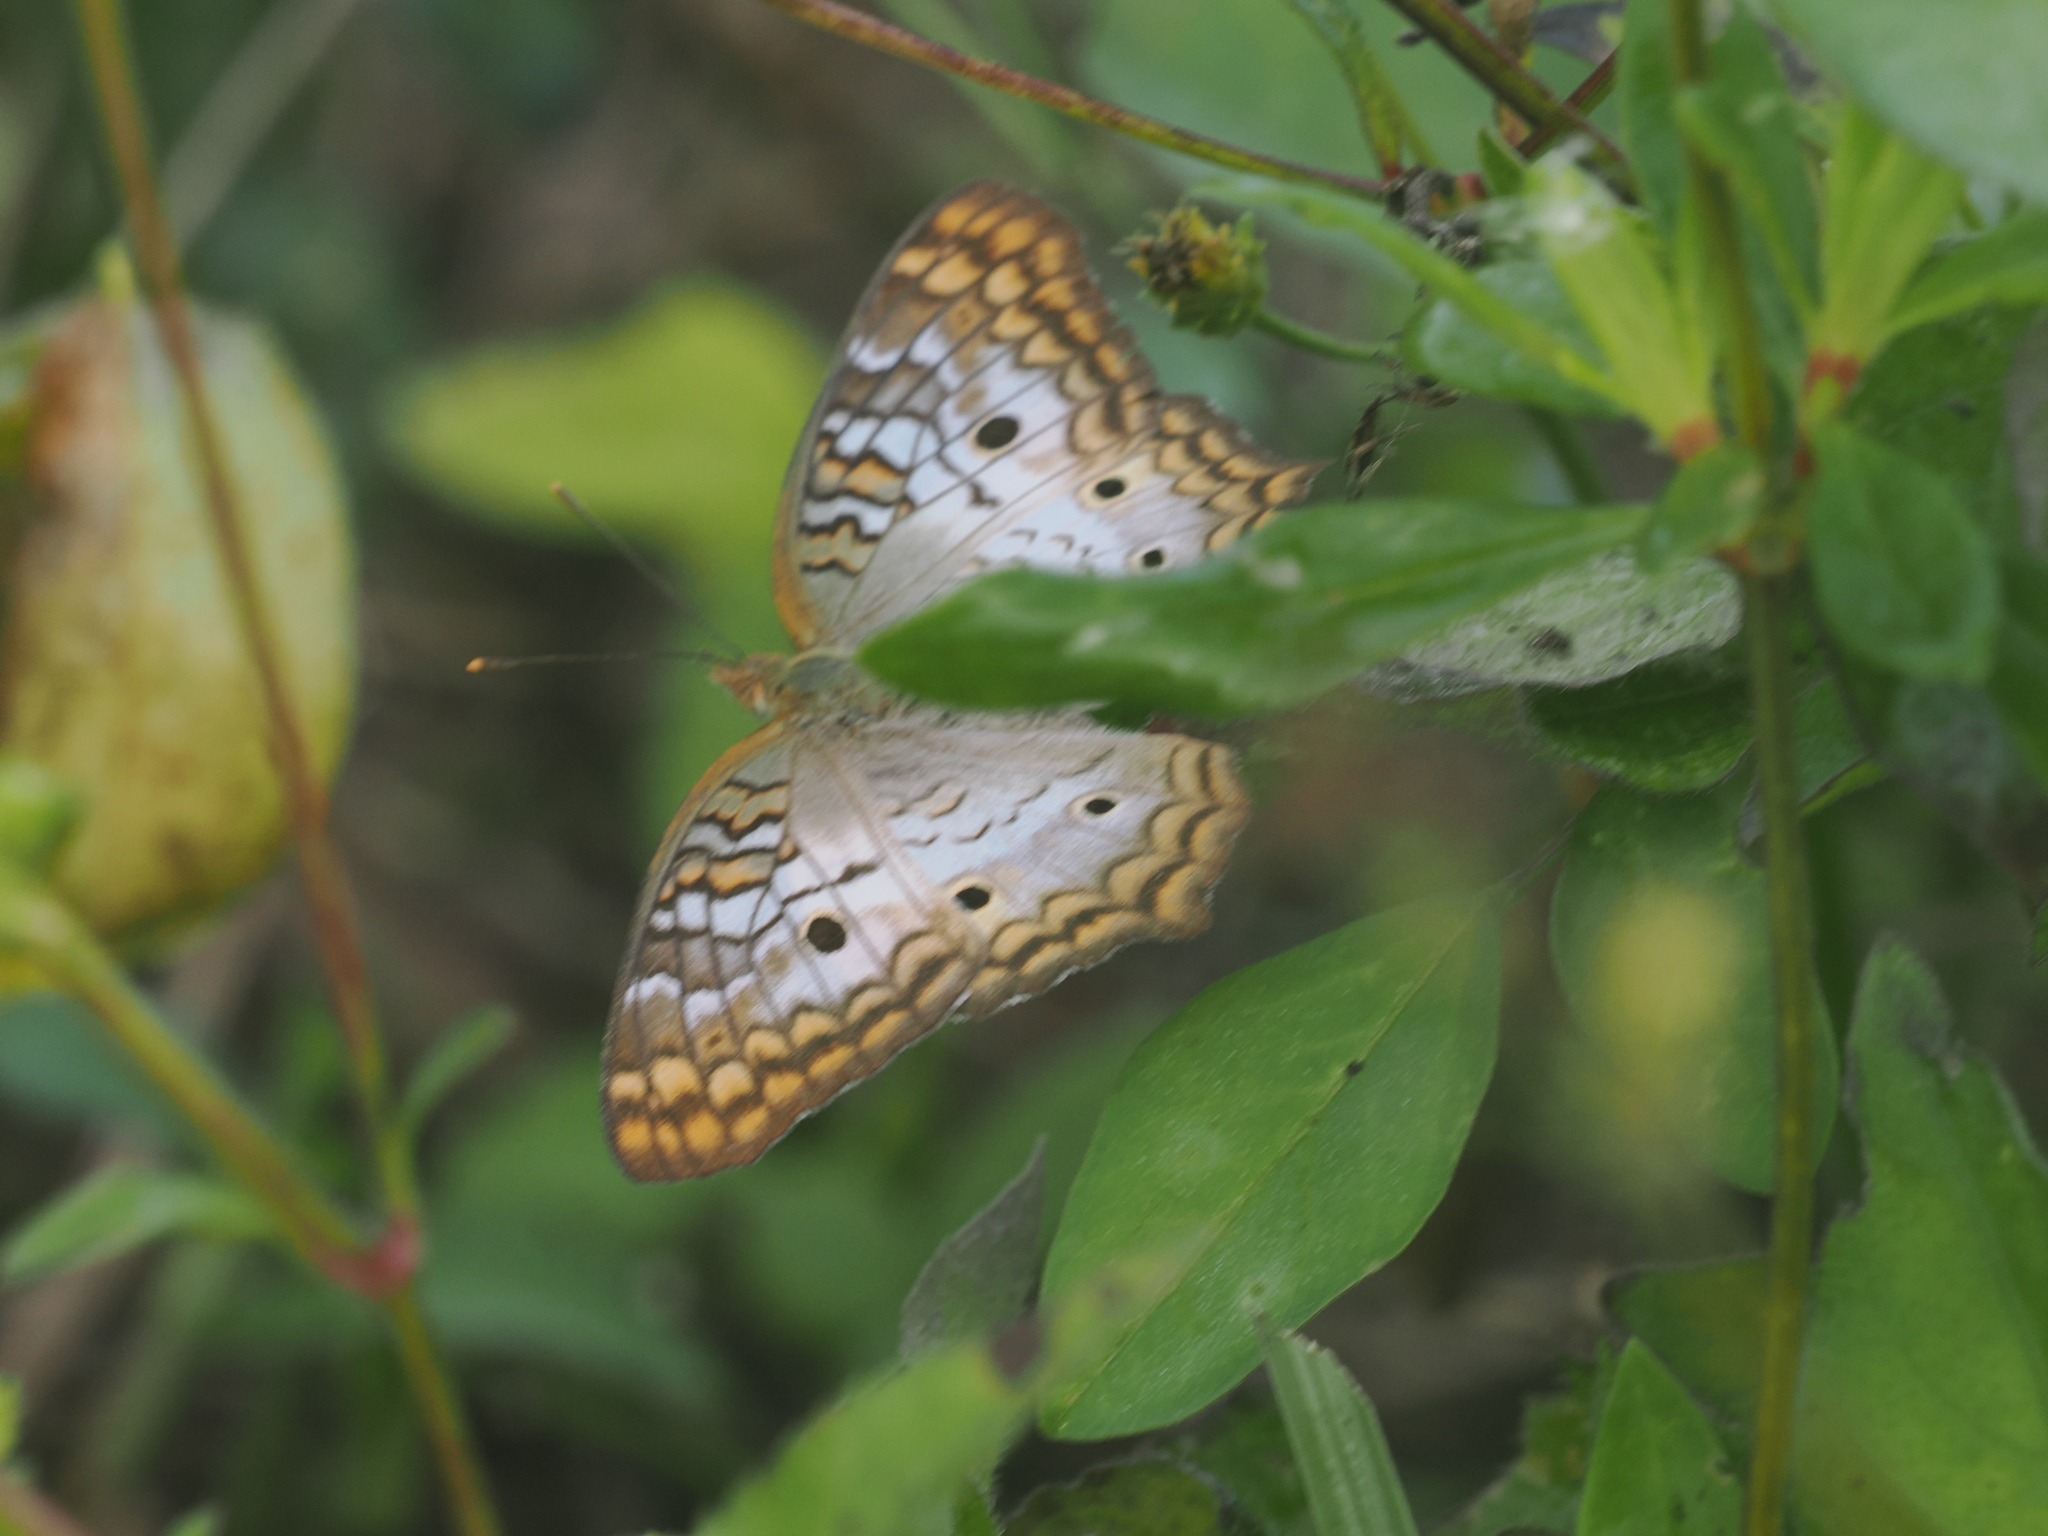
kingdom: Animalia
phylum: Arthropoda
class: Insecta
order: Lepidoptera
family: Nymphalidae
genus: Anartia
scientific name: Anartia jatrophae
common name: White peacock
